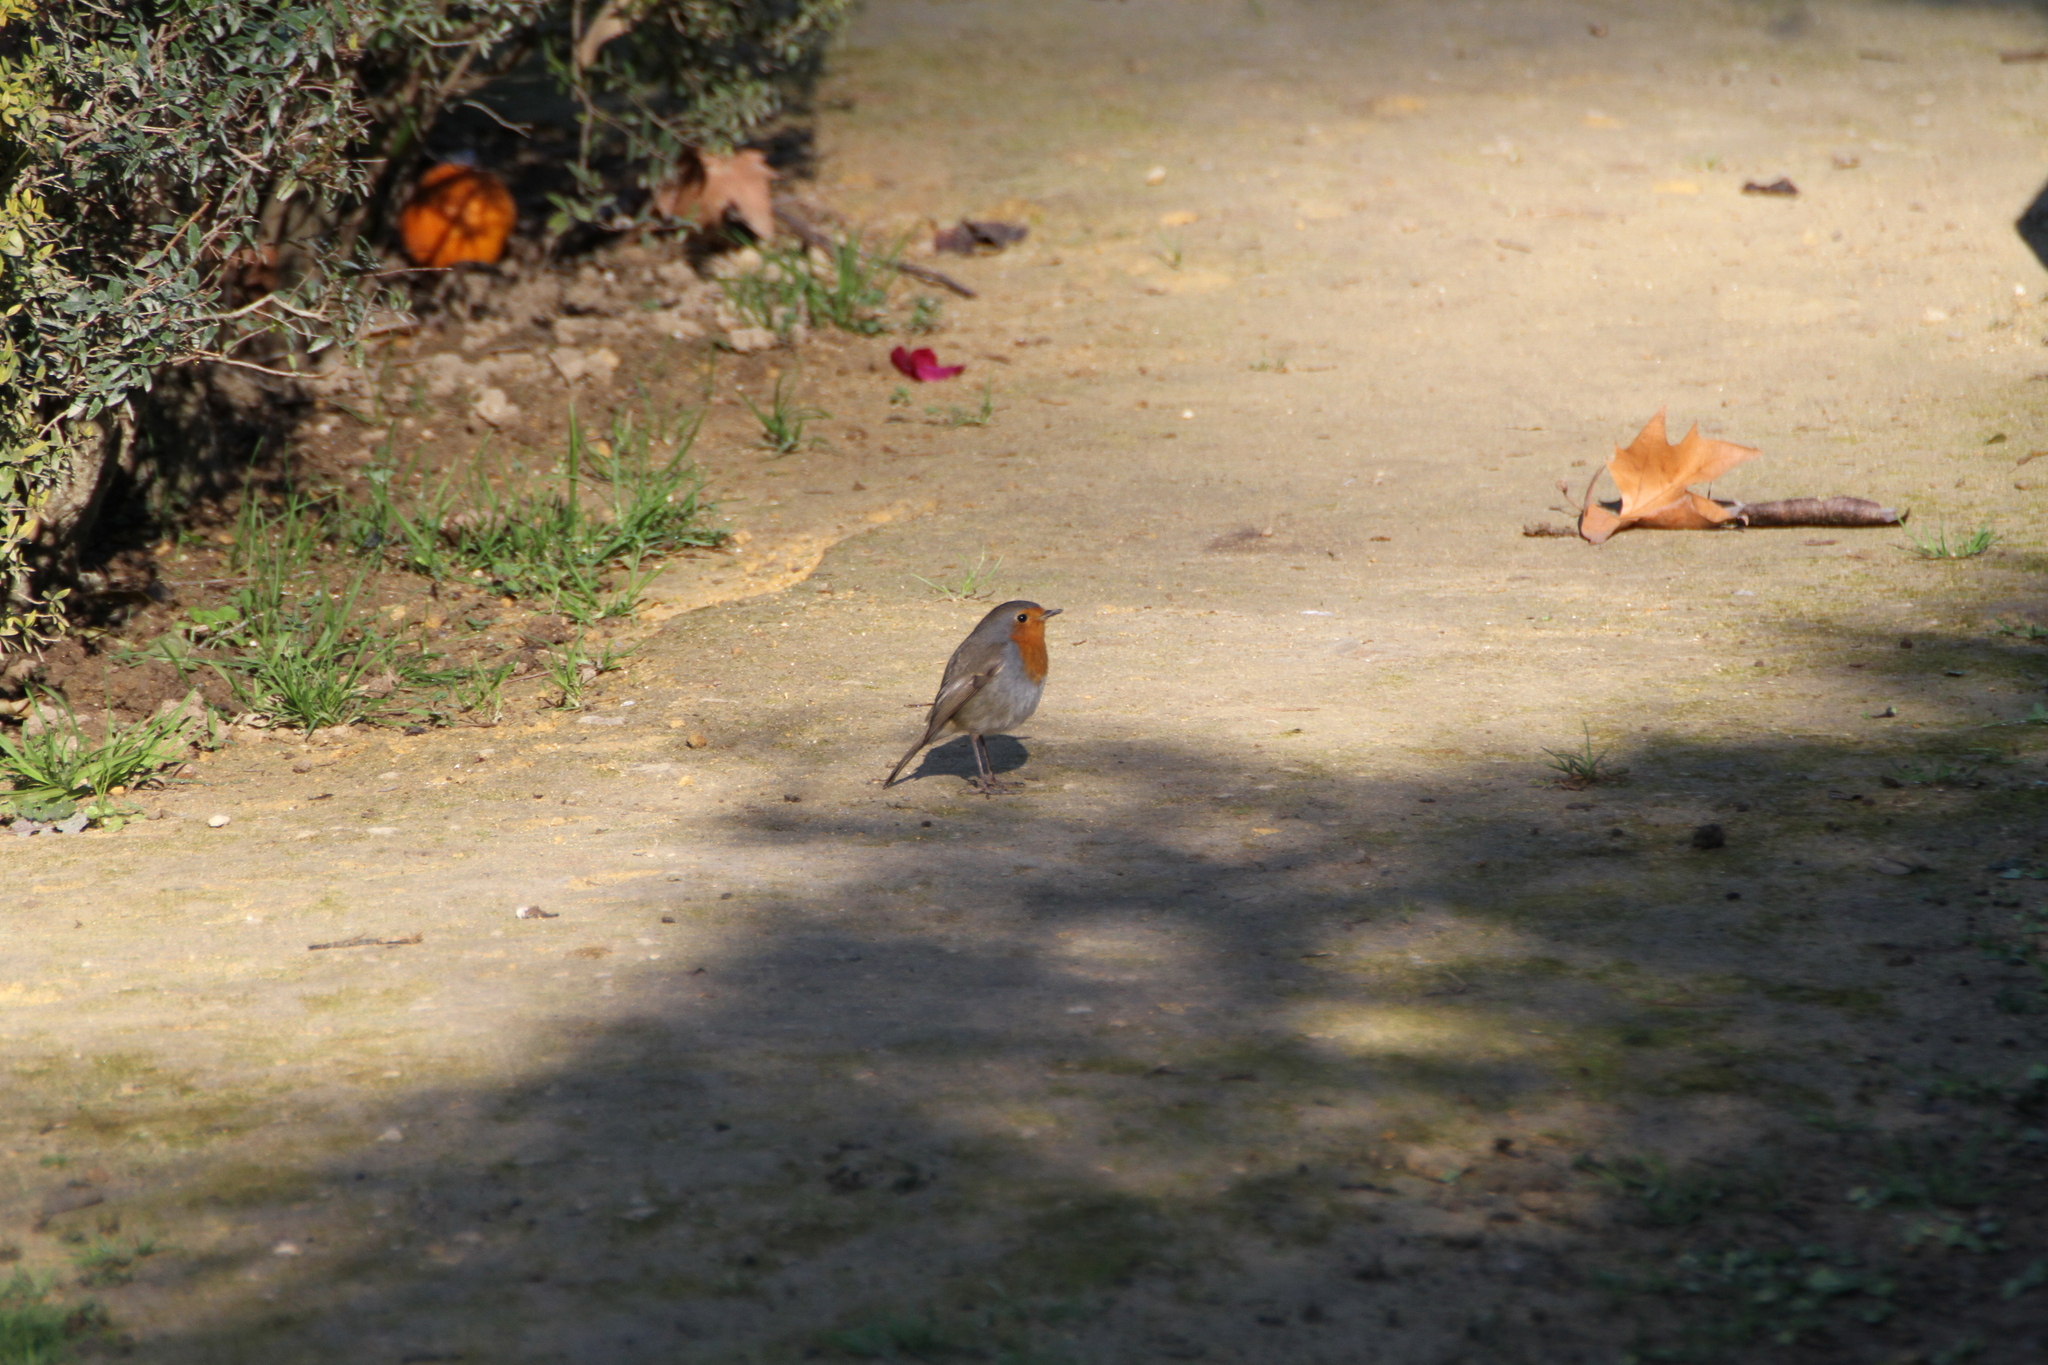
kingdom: Animalia
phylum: Chordata
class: Aves
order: Passeriformes
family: Muscicapidae
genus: Erithacus
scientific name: Erithacus rubecula
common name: European robin
